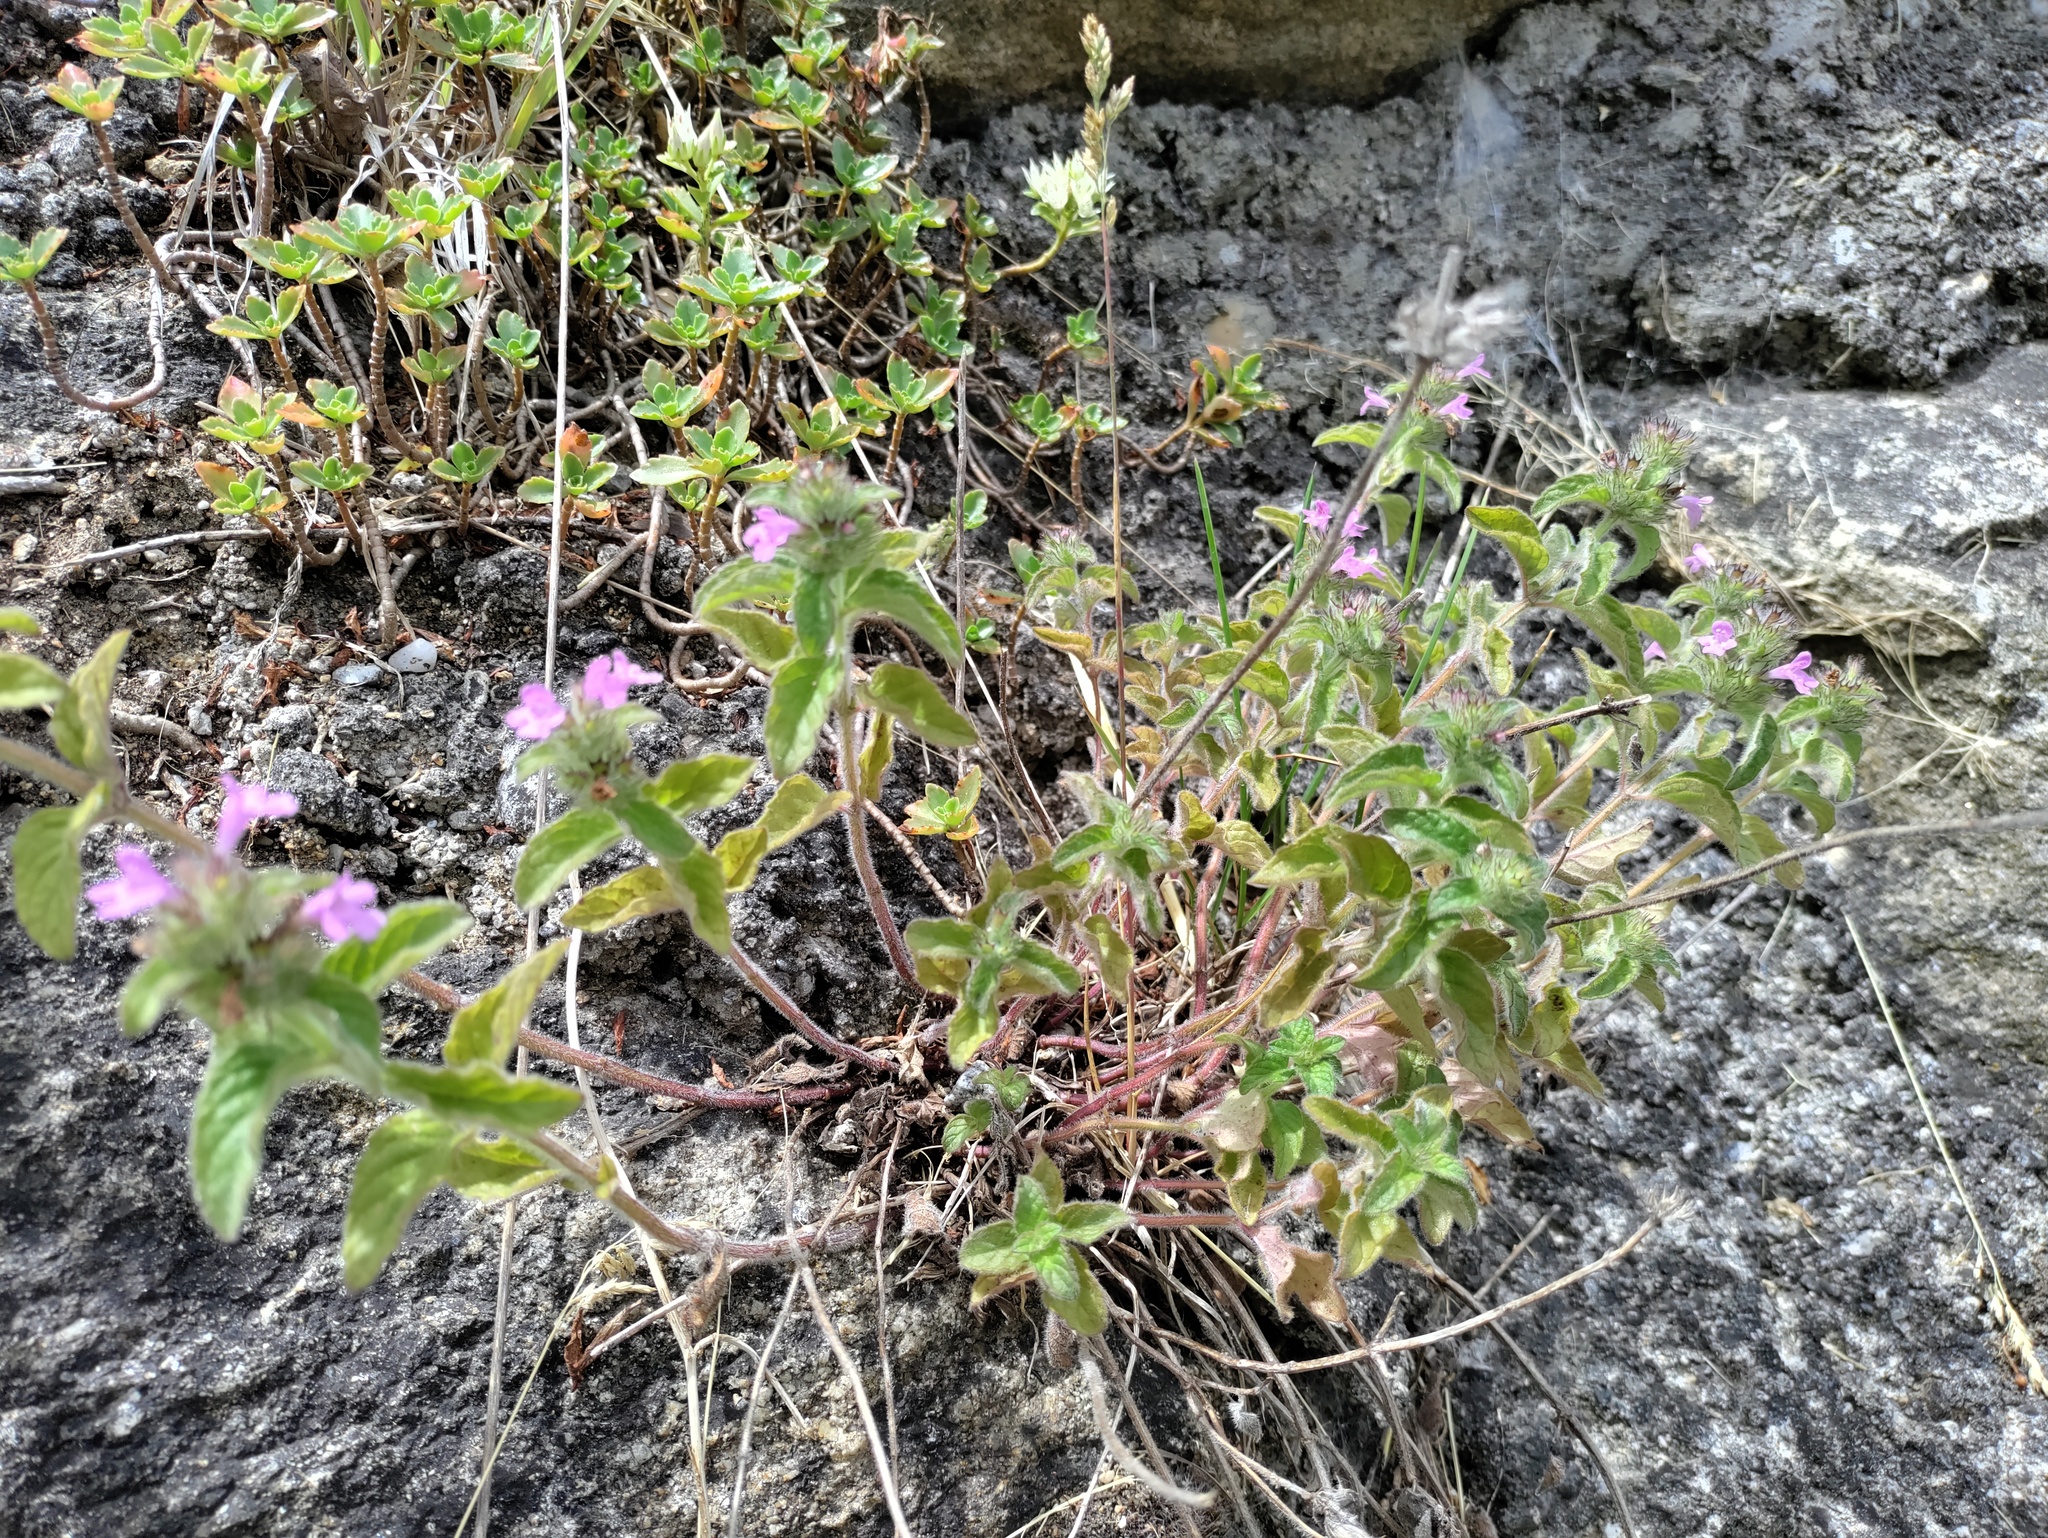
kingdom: Plantae
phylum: Tracheophyta
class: Magnoliopsida
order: Lamiales
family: Lamiaceae
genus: Clinopodium
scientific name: Clinopodium vulgare
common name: Wild basil
